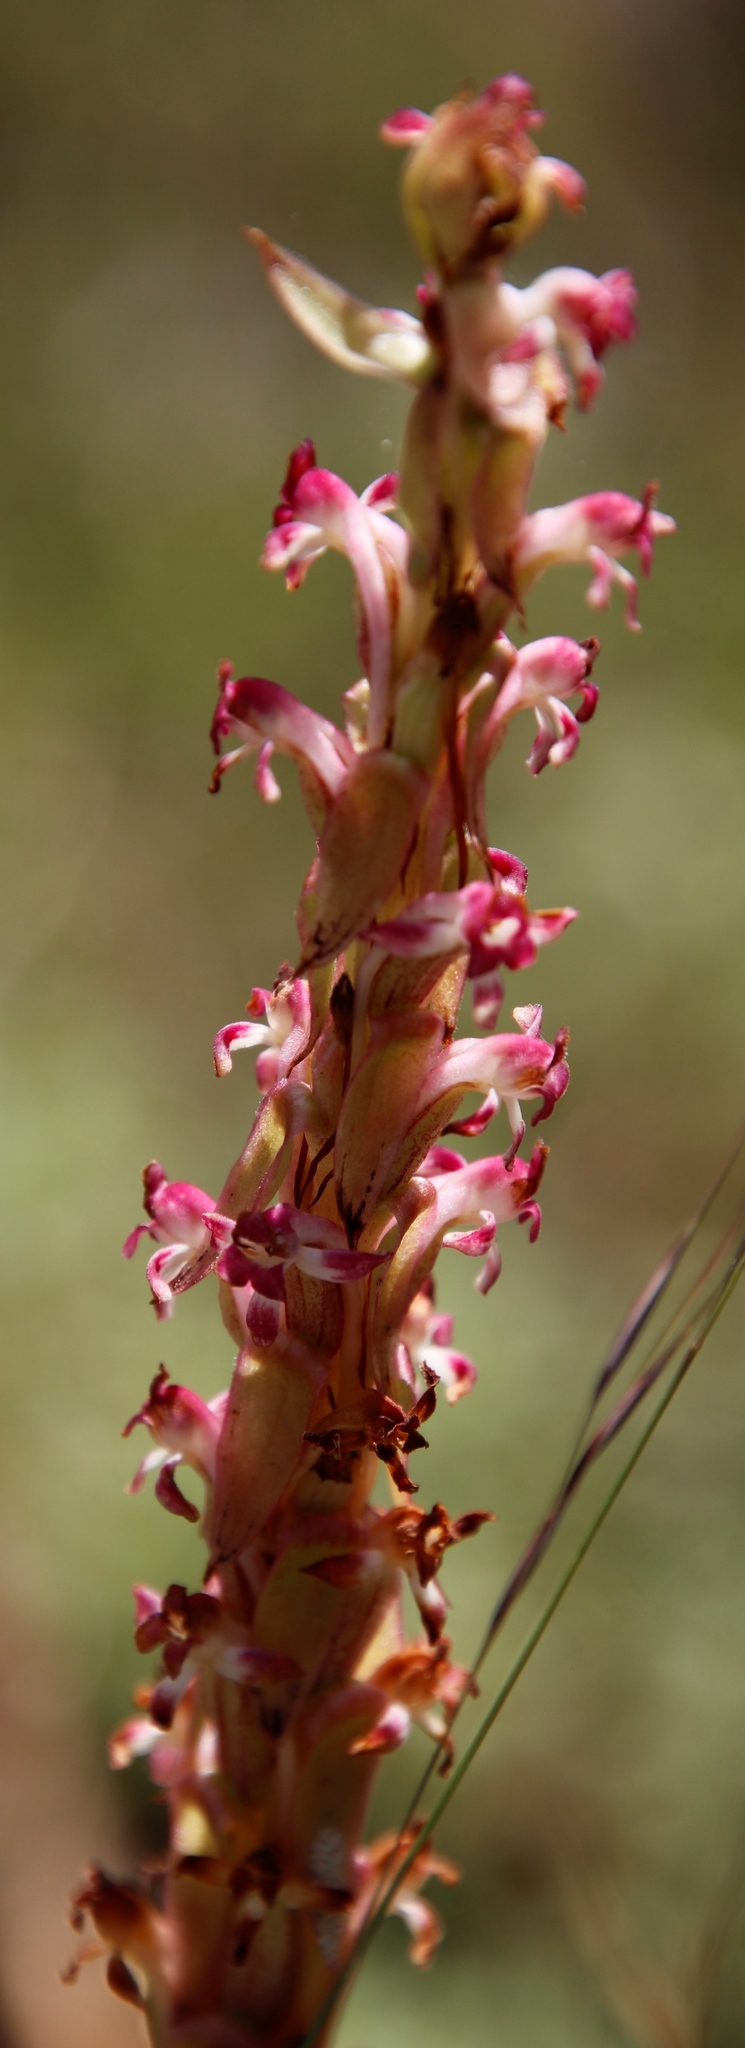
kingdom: Plantae
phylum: Tracheophyta
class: Liliopsida
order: Asparagales
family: Orchidaceae
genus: Satyrium
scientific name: Satyrium longicauda
